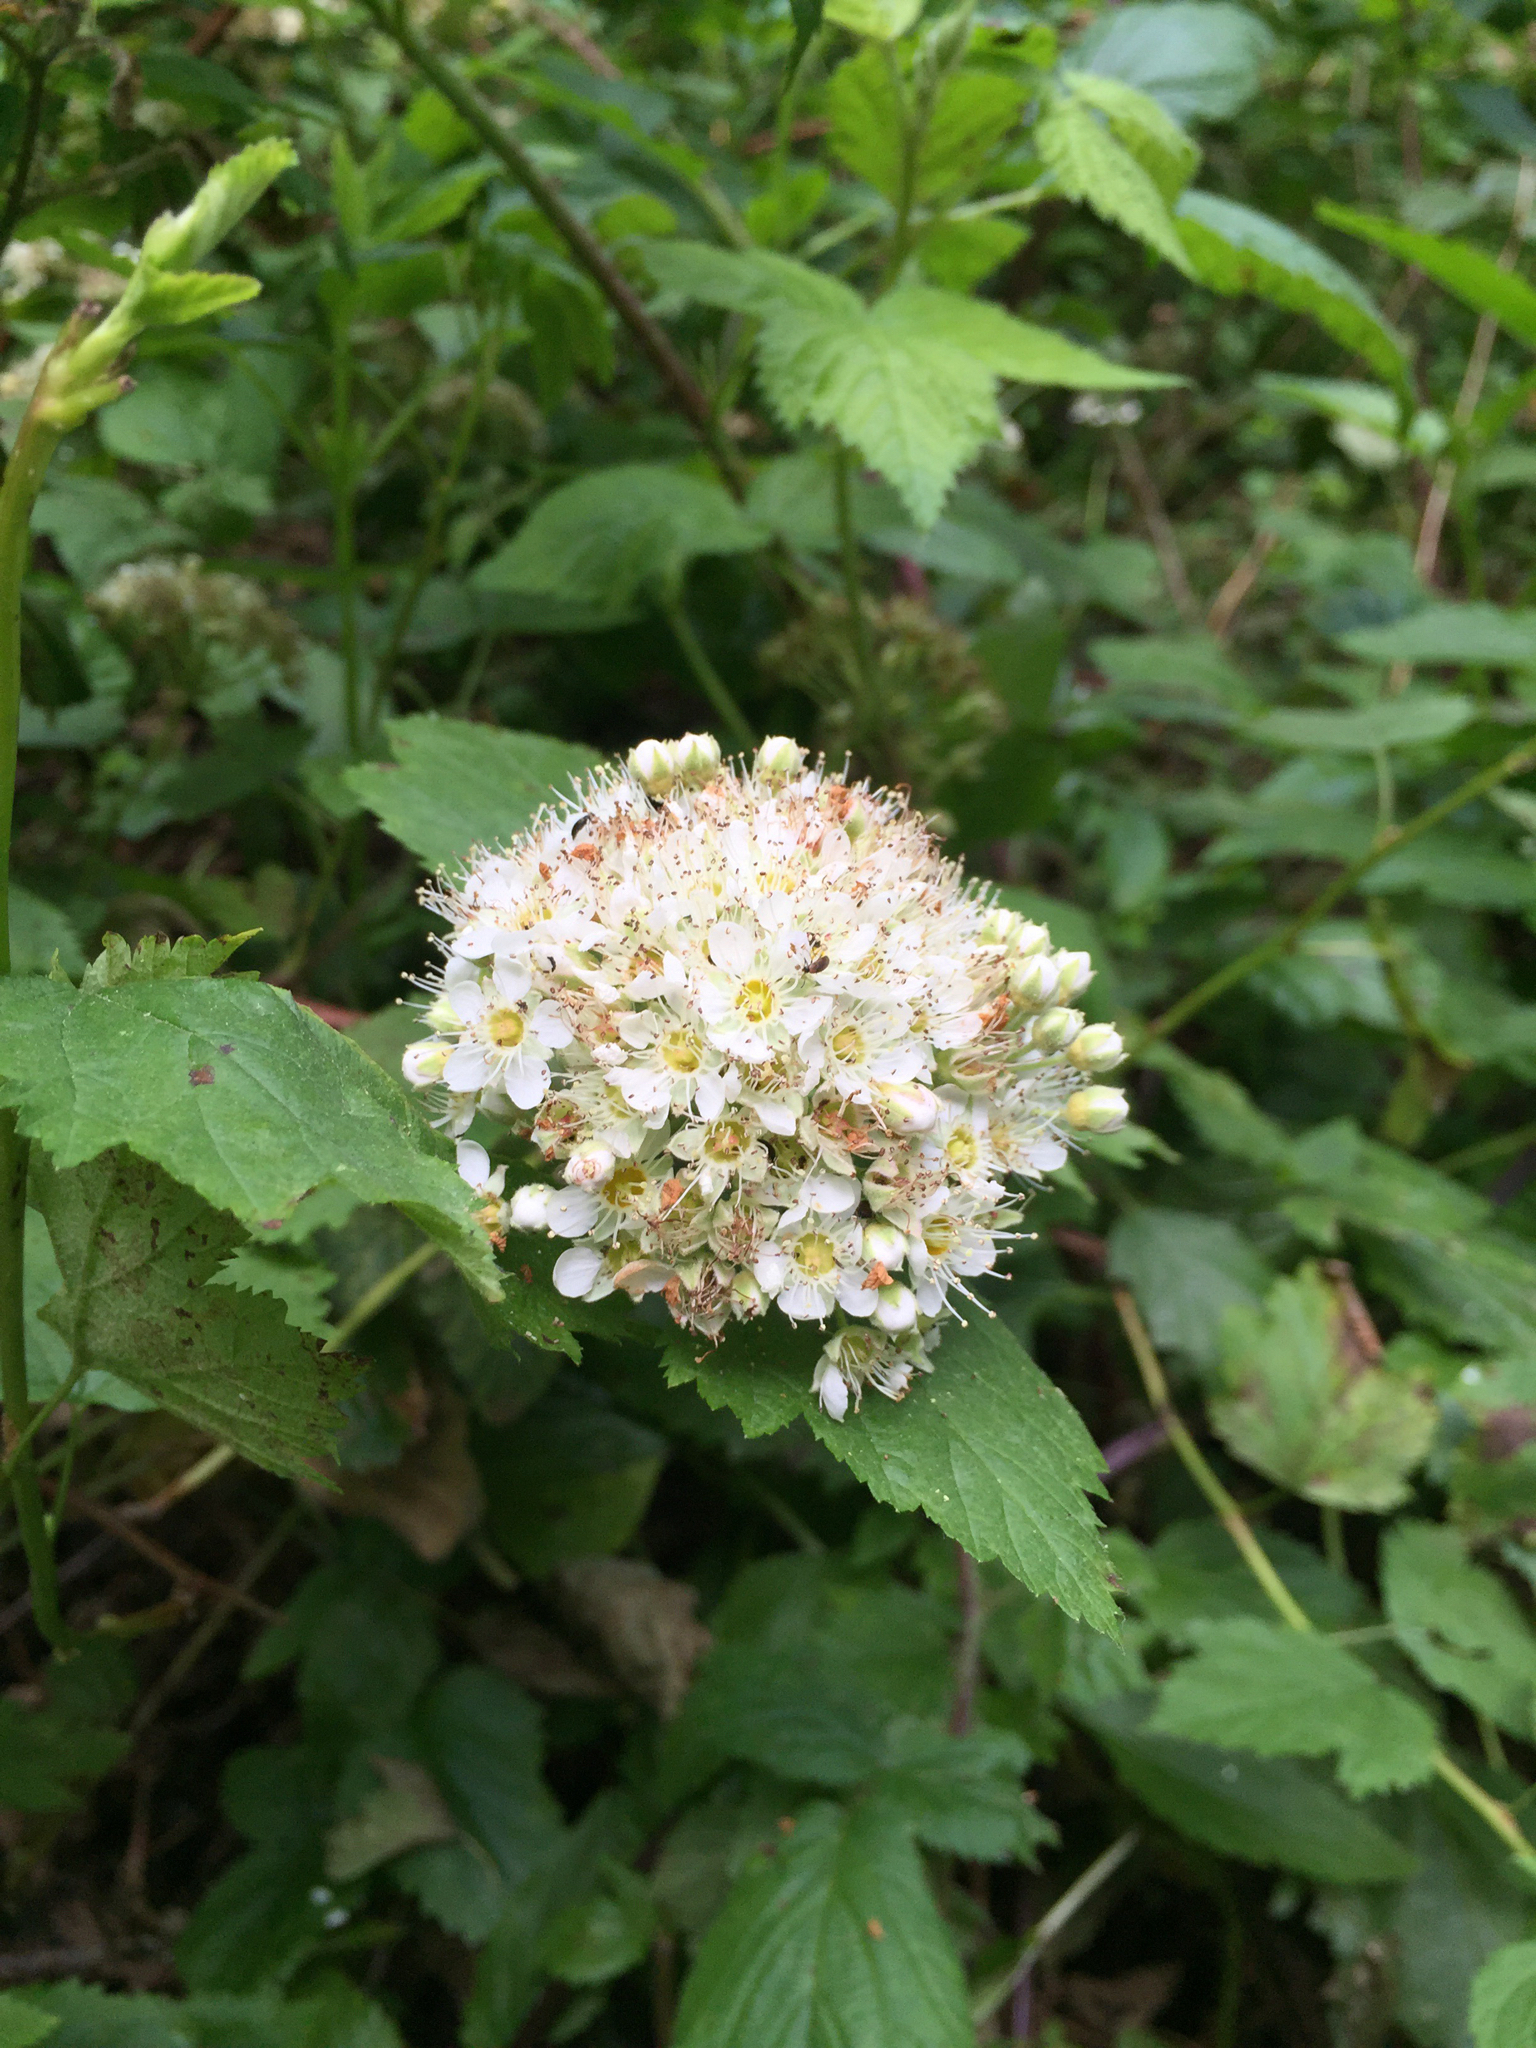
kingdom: Plantae
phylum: Tracheophyta
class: Magnoliopsida
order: Rosales
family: Rosaceae
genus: Physocarpus
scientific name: Physocarpus capitatus
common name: Pacific ninebark
